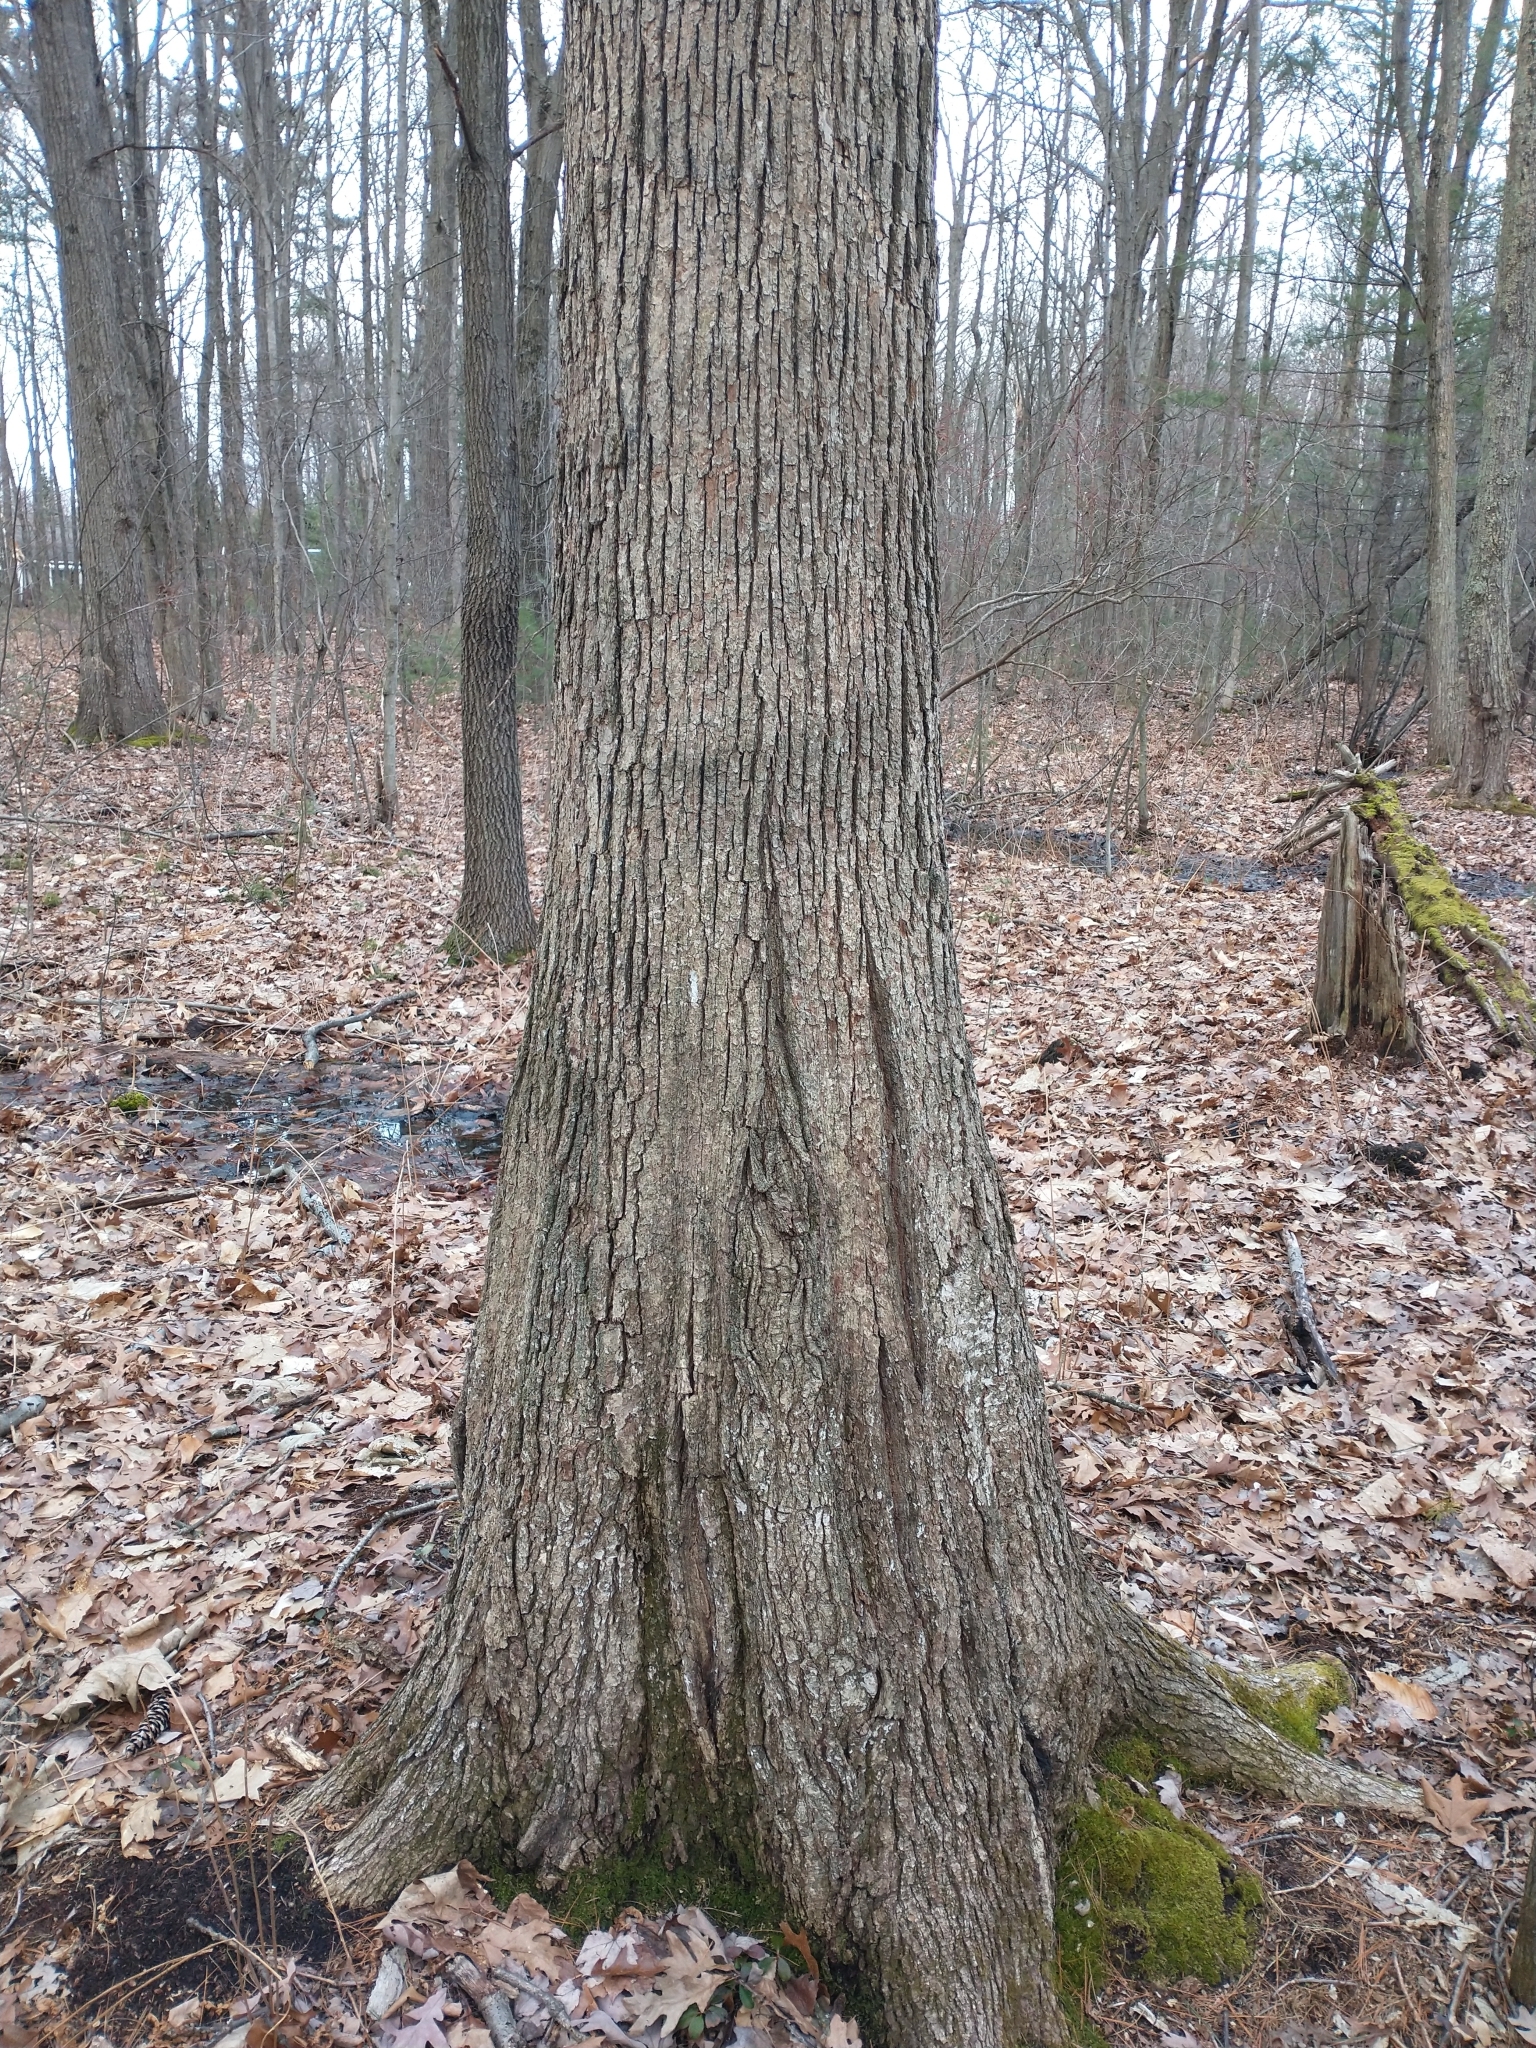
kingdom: Plantae
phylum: Tracheophyta
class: Magnoliopsida
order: Fagales
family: Fagaceae
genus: Quercus
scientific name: Quercus alba
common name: White oak
